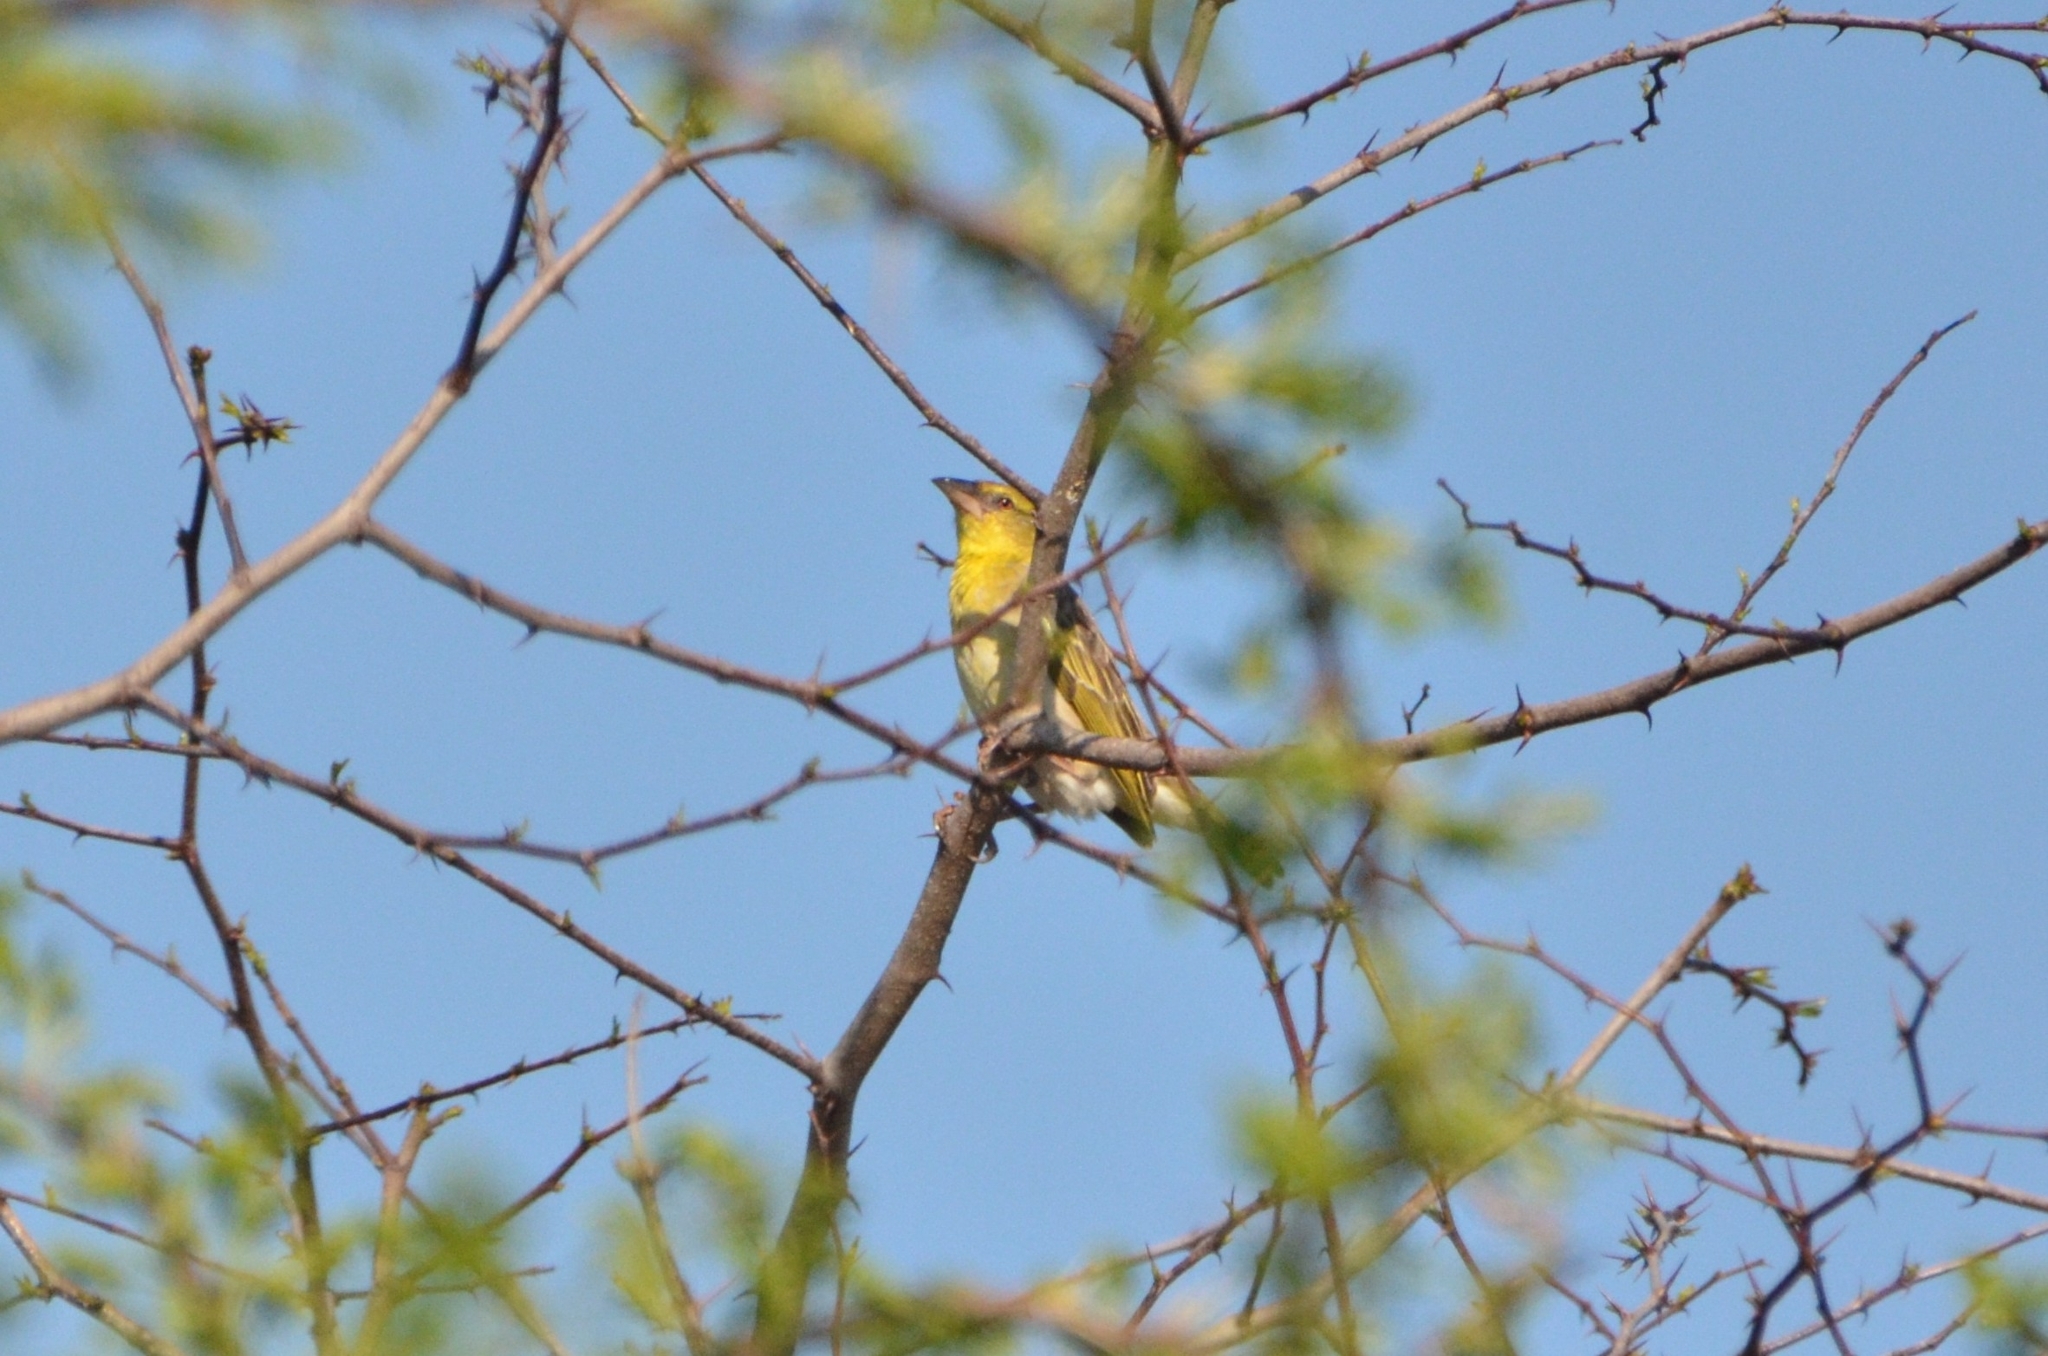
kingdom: Animalia
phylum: Chordata
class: Aves
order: Passeriformes
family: Ploceidae
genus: Ploceus
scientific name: Ploceus cucullatus
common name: Village weaver
